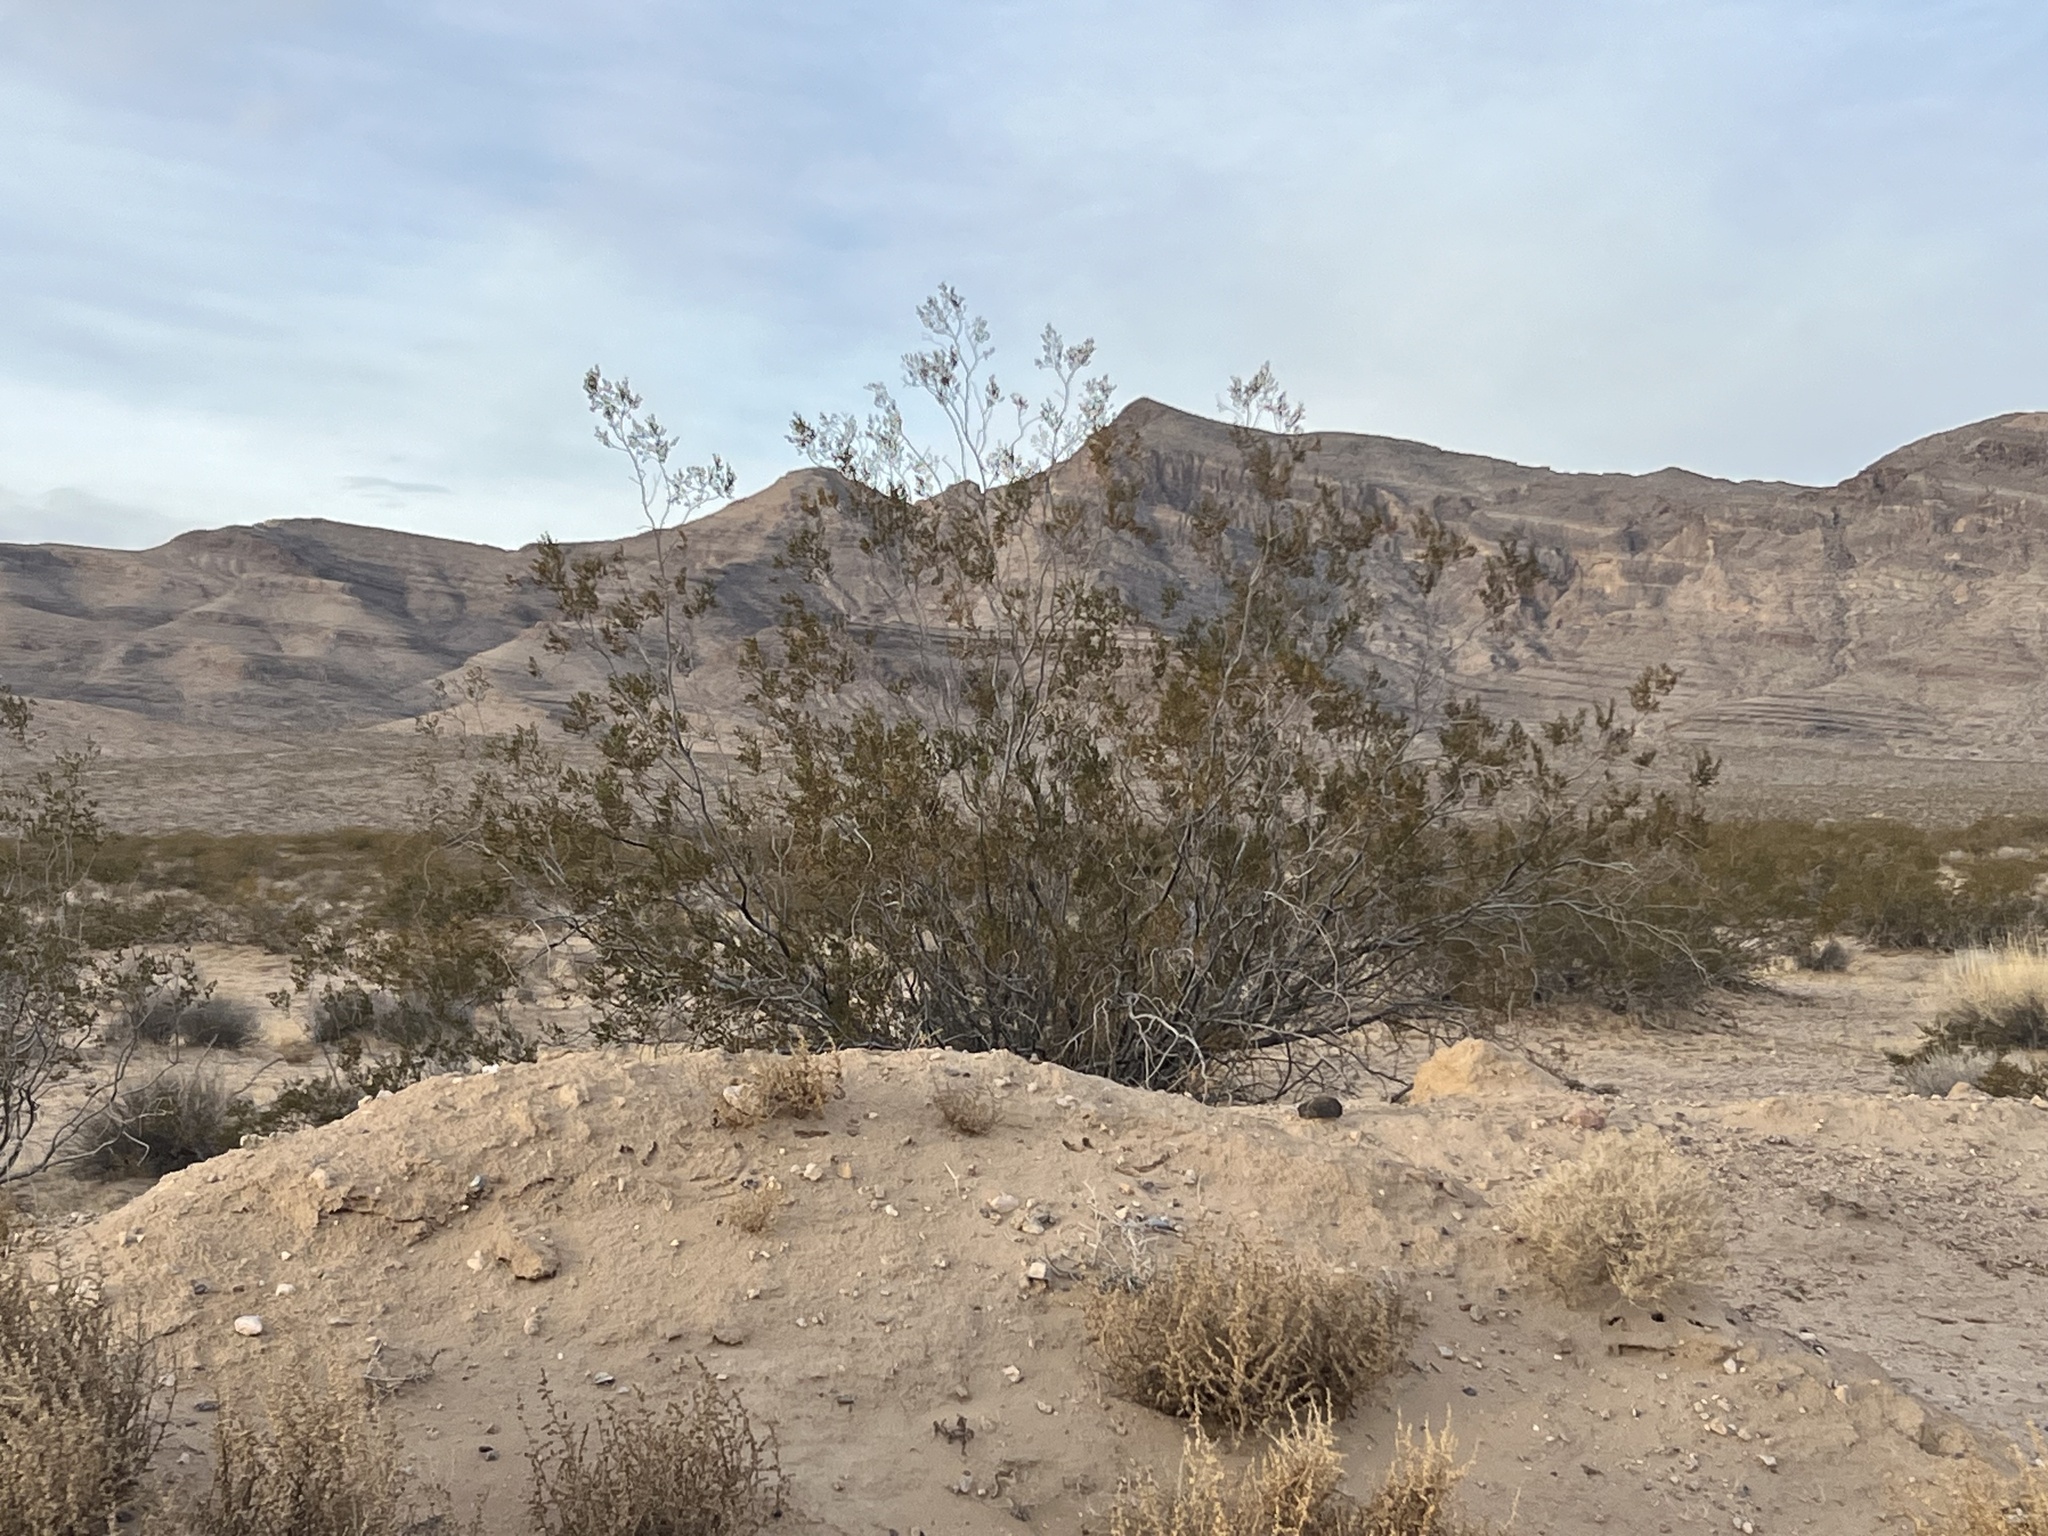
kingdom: Plantae
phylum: Tracheophyta
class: Magnoliopsida
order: Zygophyllales
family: Zygophyllaceae
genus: Larrea
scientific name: Larrea tridentata
